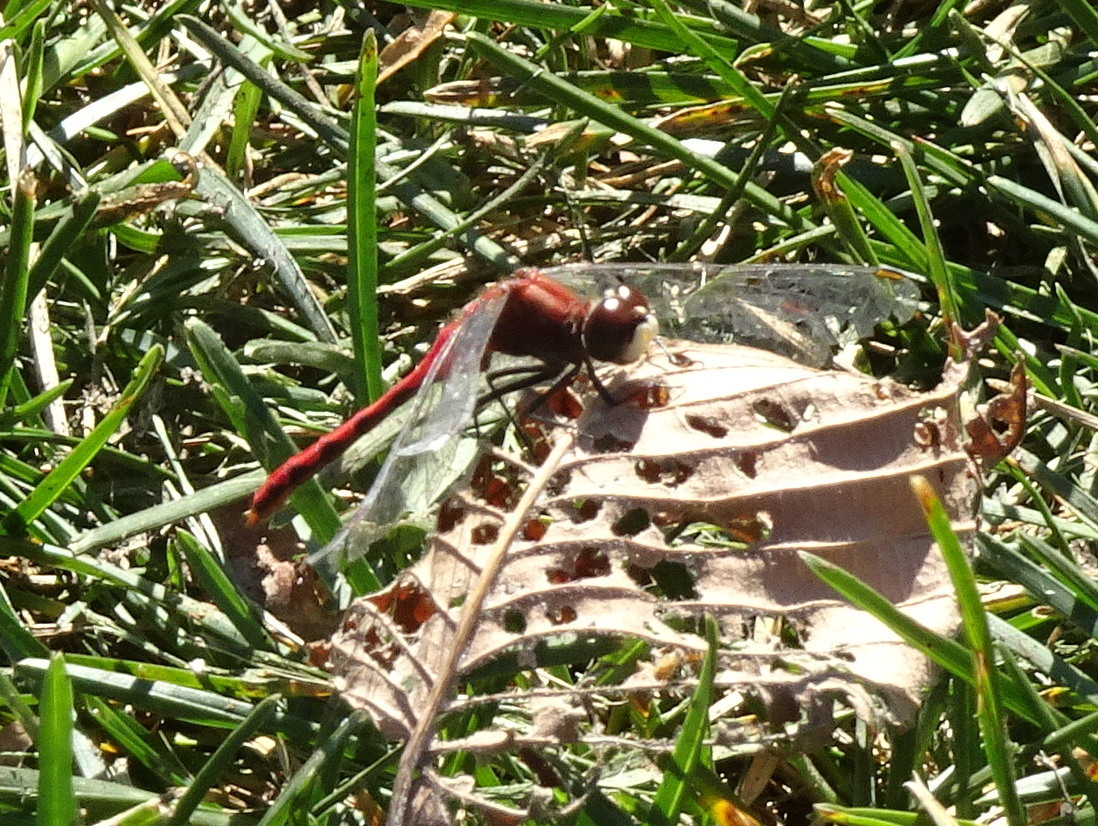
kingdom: Animalia
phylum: Arthropoda
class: Insecta
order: Odonata
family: Libellulidae
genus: Sympetrum
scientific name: Sympetrum obtrusum
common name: White-faced meadowhawk
